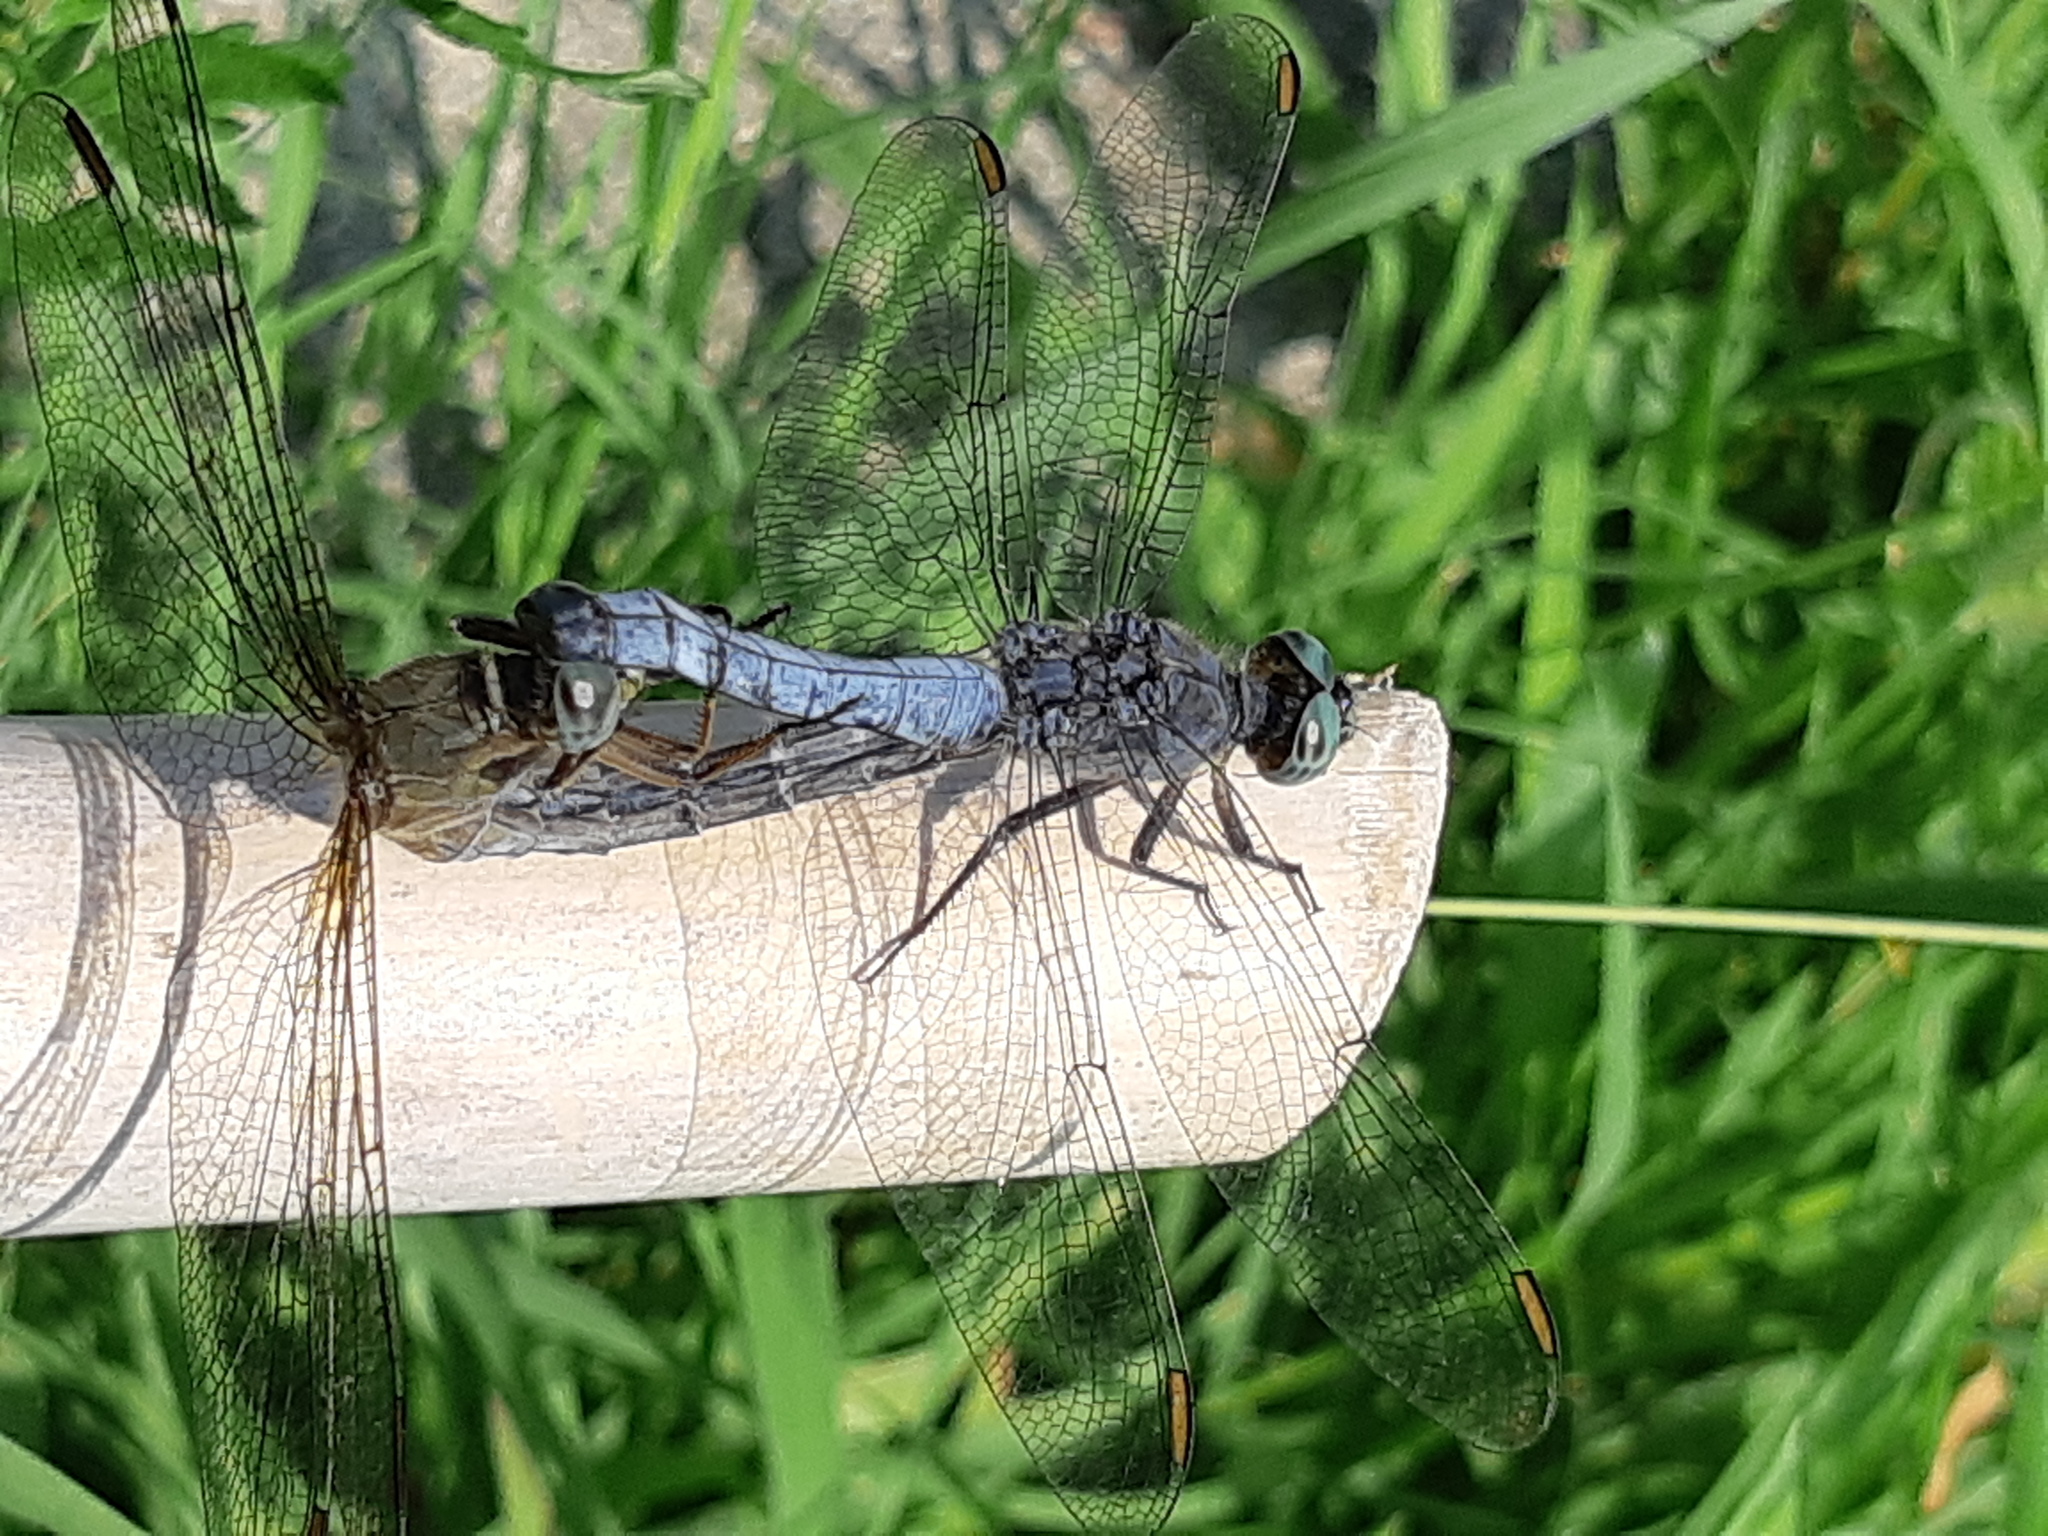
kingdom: Animalia
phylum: Arthropoda
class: Insecta
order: Odonata
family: Libellulidae
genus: Orthetrum
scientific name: Orthetrum coerulescens
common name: Keeled skimmer
